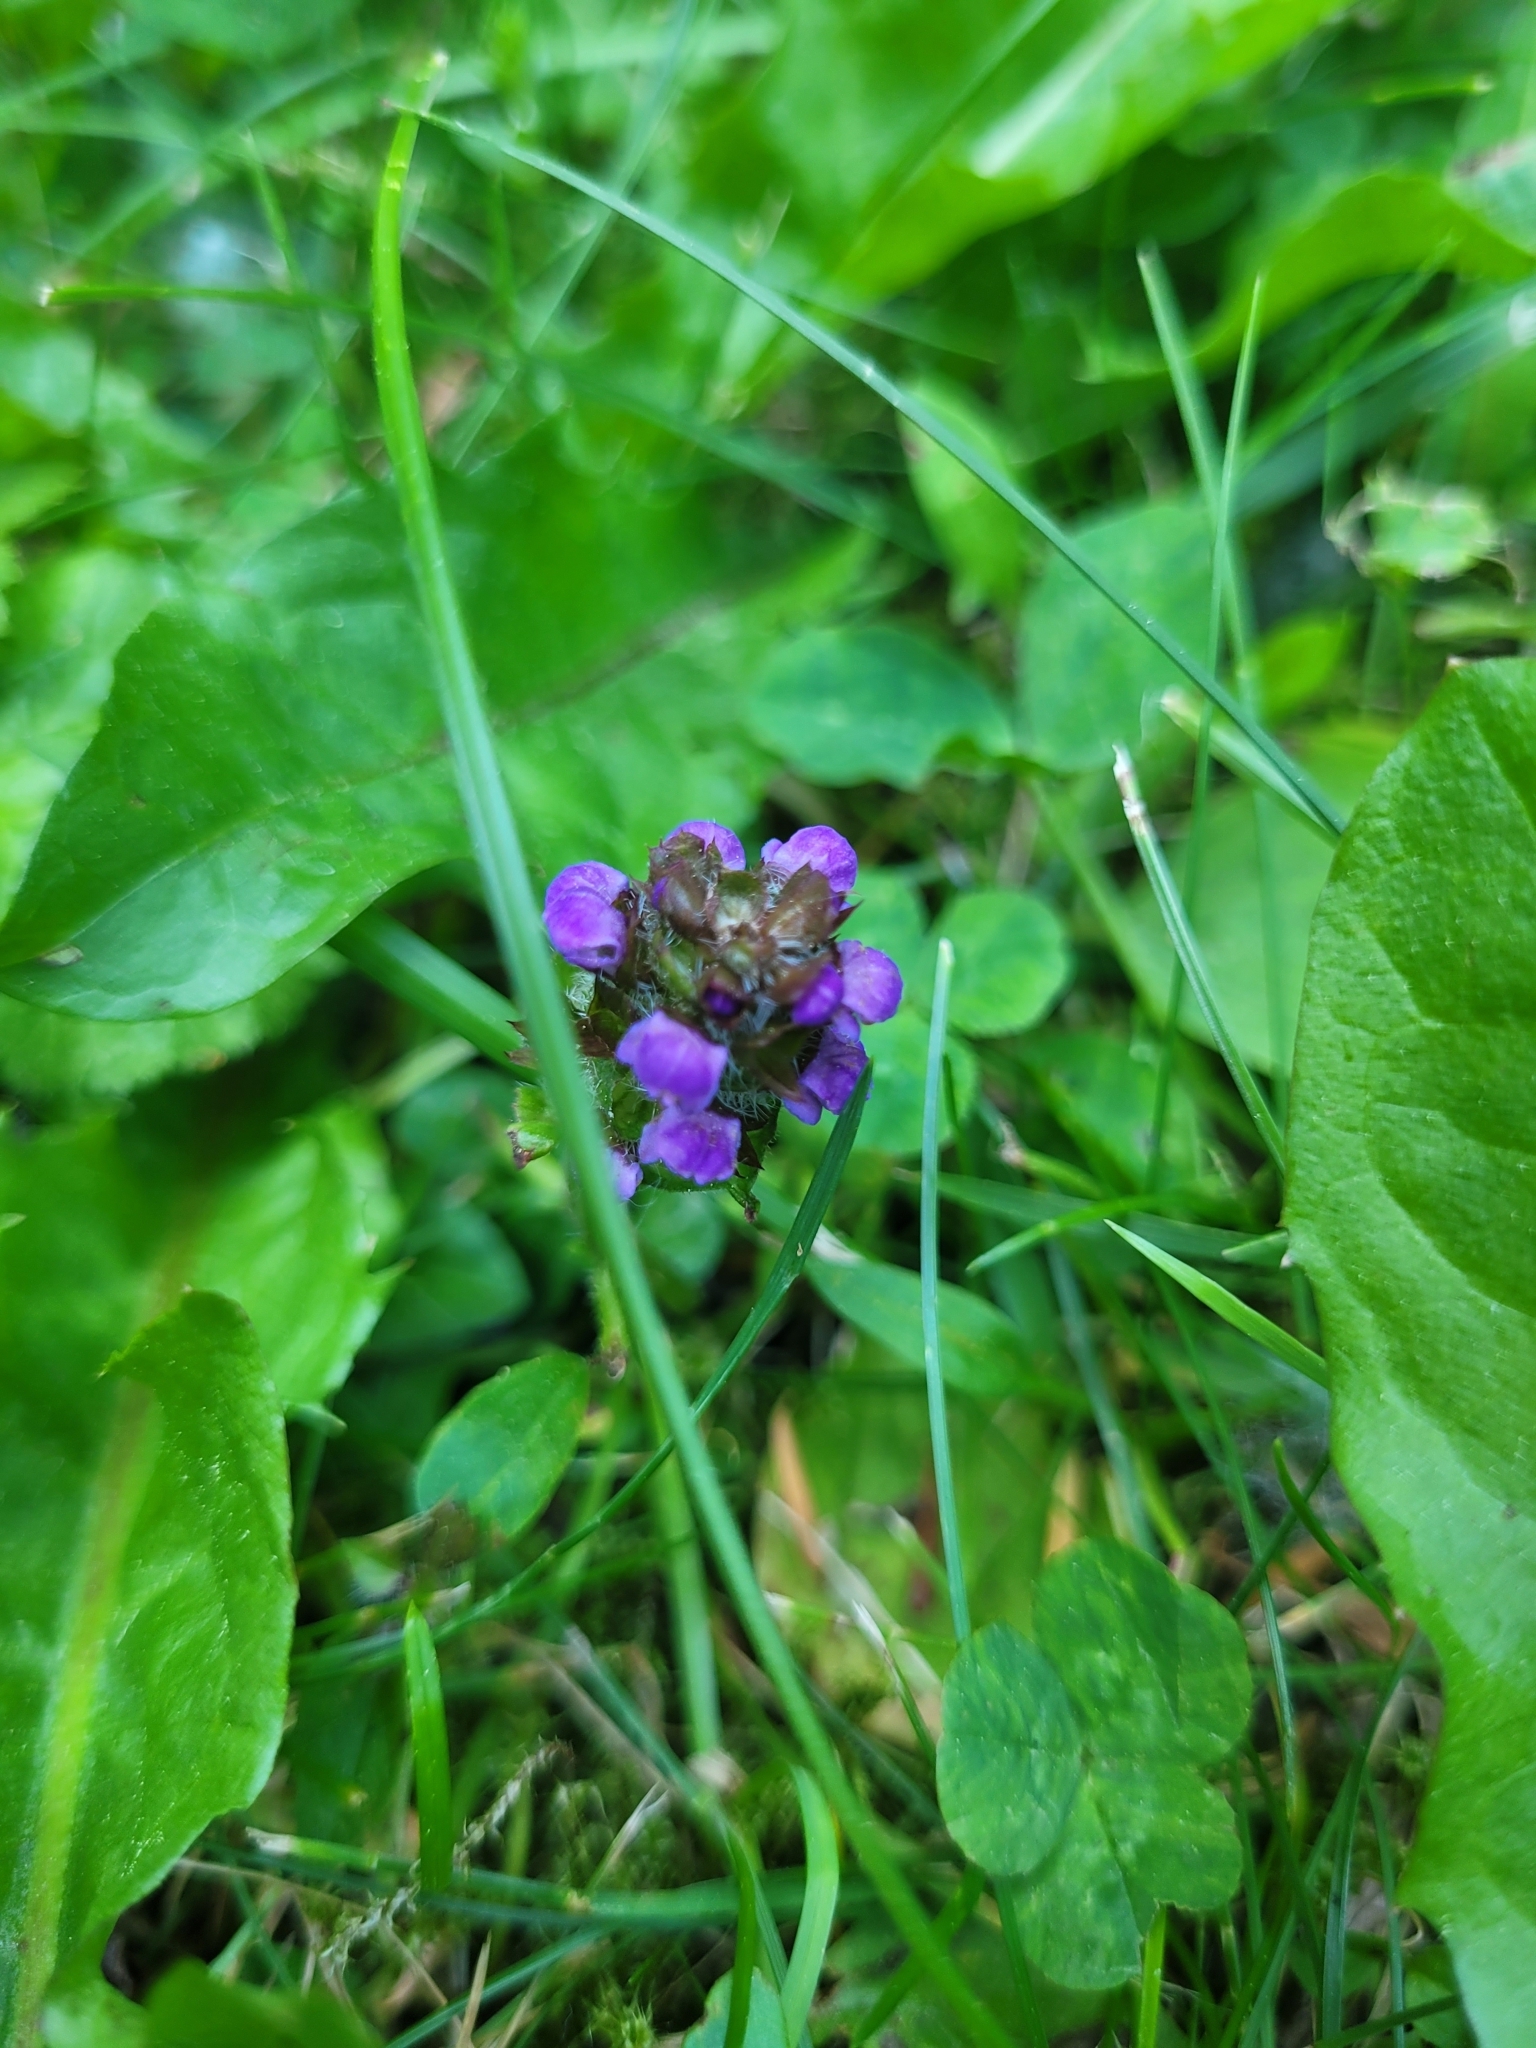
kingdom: Plantae
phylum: Tracheophyta
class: Magnoliopsida
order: Lamiales
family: Lamiaceae
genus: Prunella
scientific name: Prunella vulgaris
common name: Heal-all
